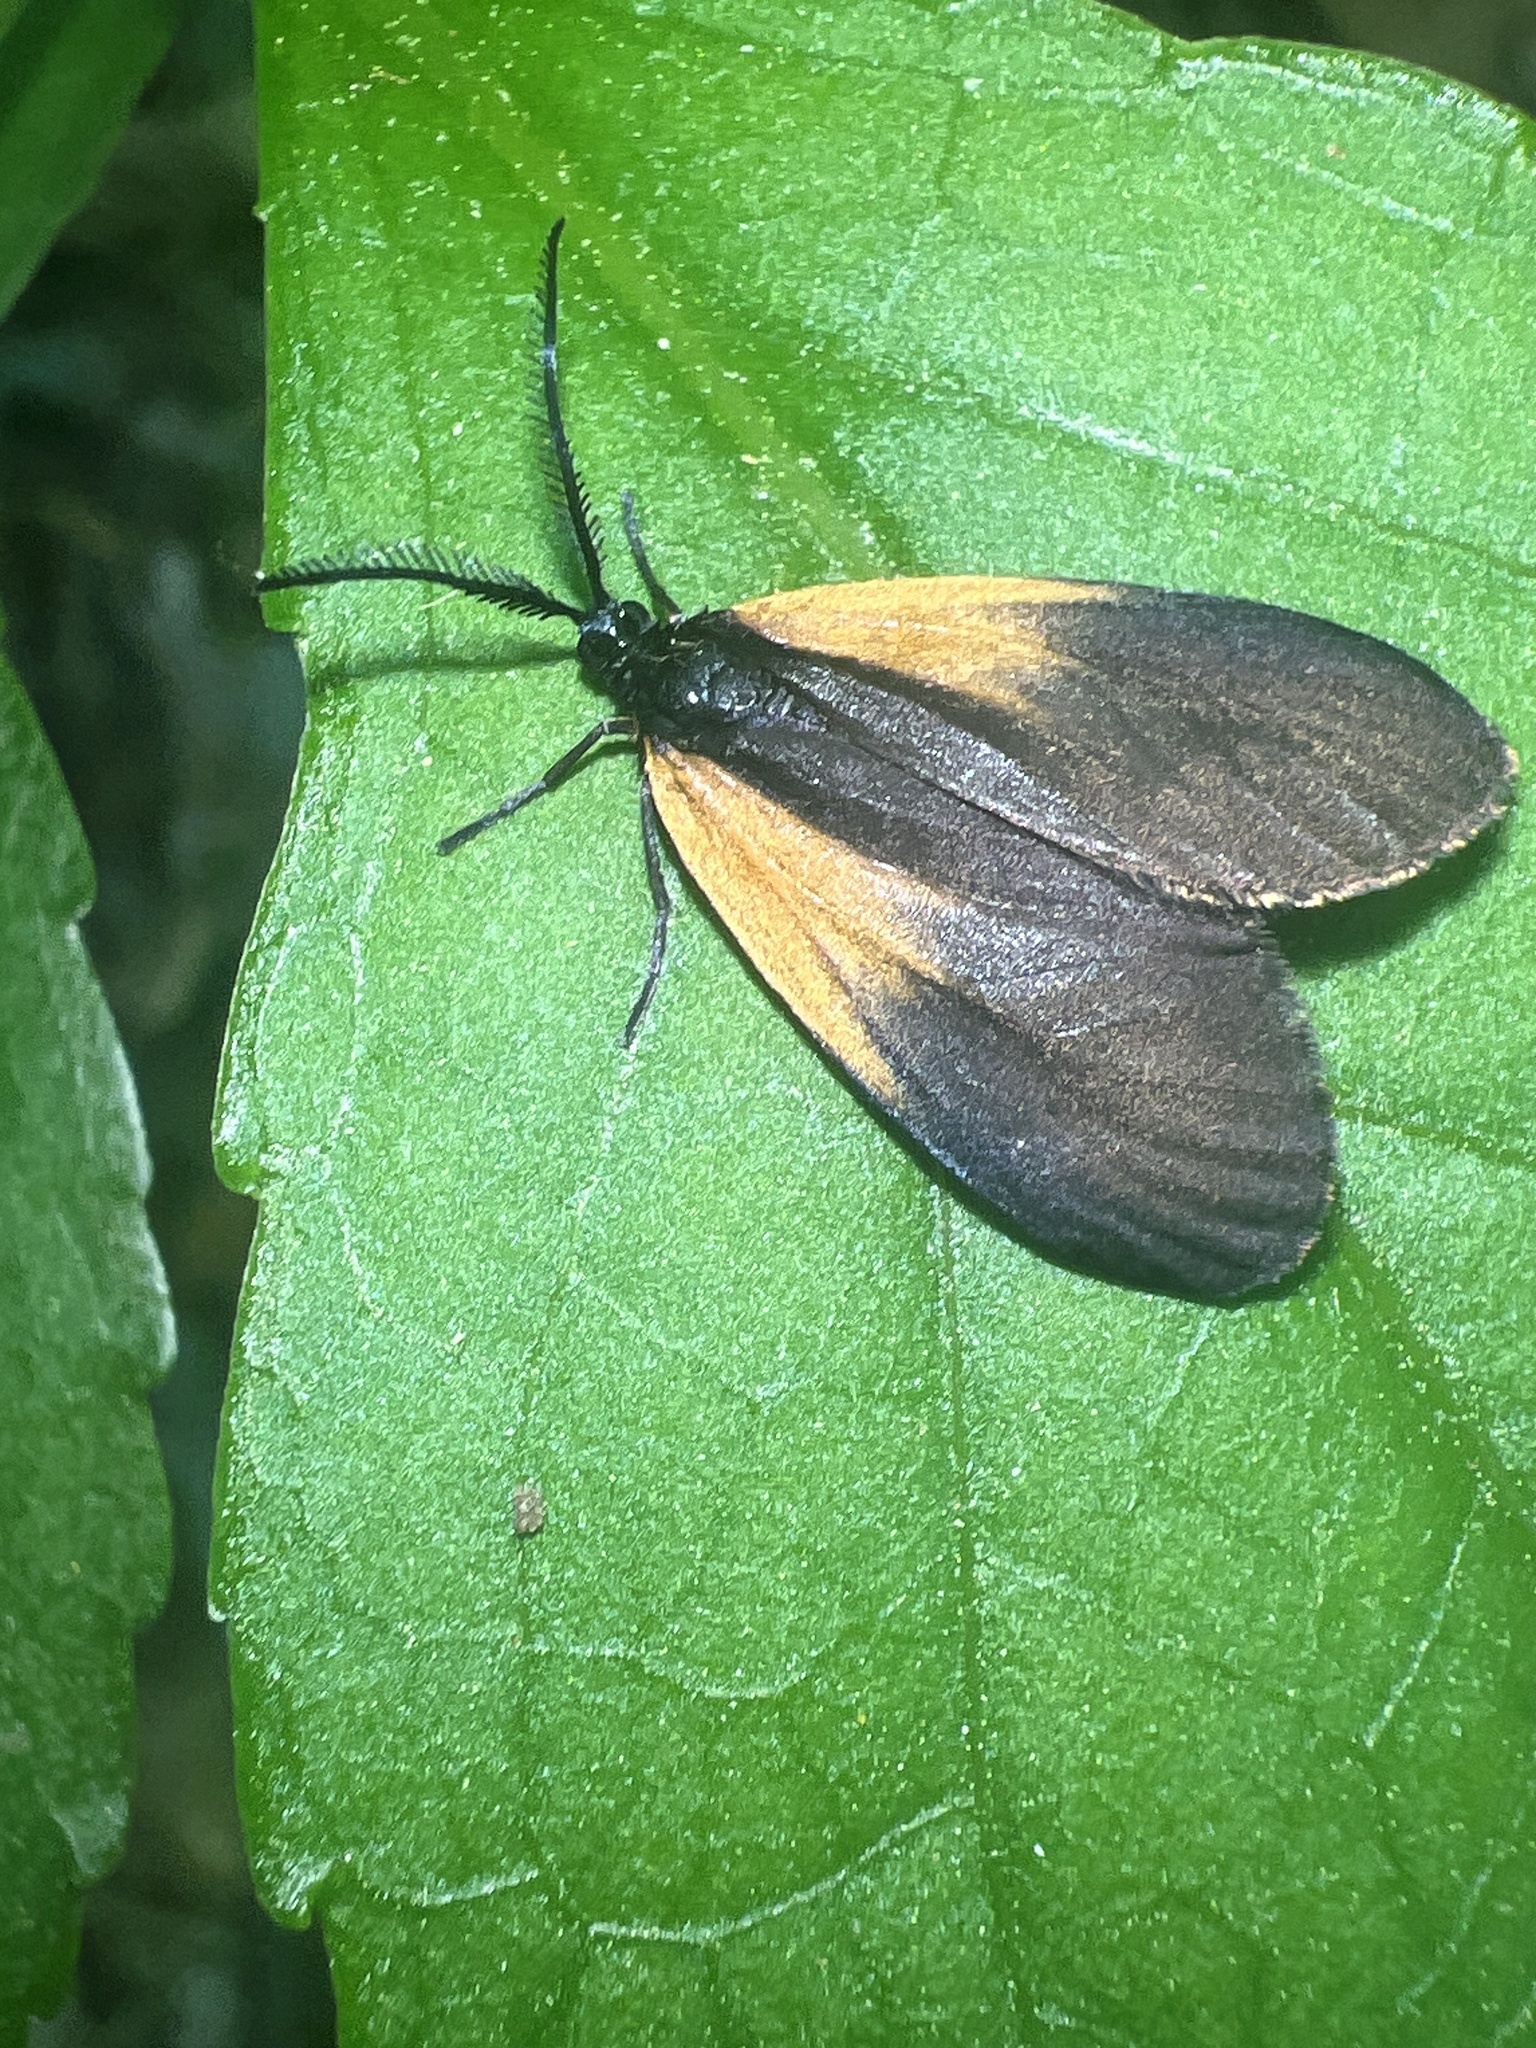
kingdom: Animalia
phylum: Arthropoda
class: Insecta
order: Lepidoptera
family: Zygaenidae
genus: Malthaca
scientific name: Malthaca dimidiata
